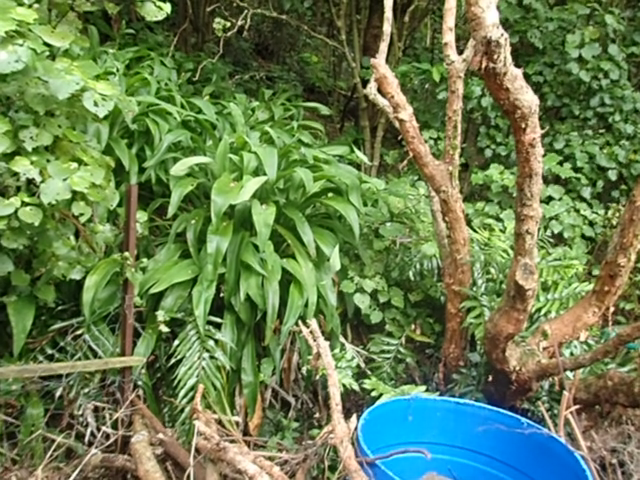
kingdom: Plantae
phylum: Tracheophyta
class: Liliopsida
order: Asparagales
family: Asparagaceae
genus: Arthropodium
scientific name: Arthropodium cirratum
